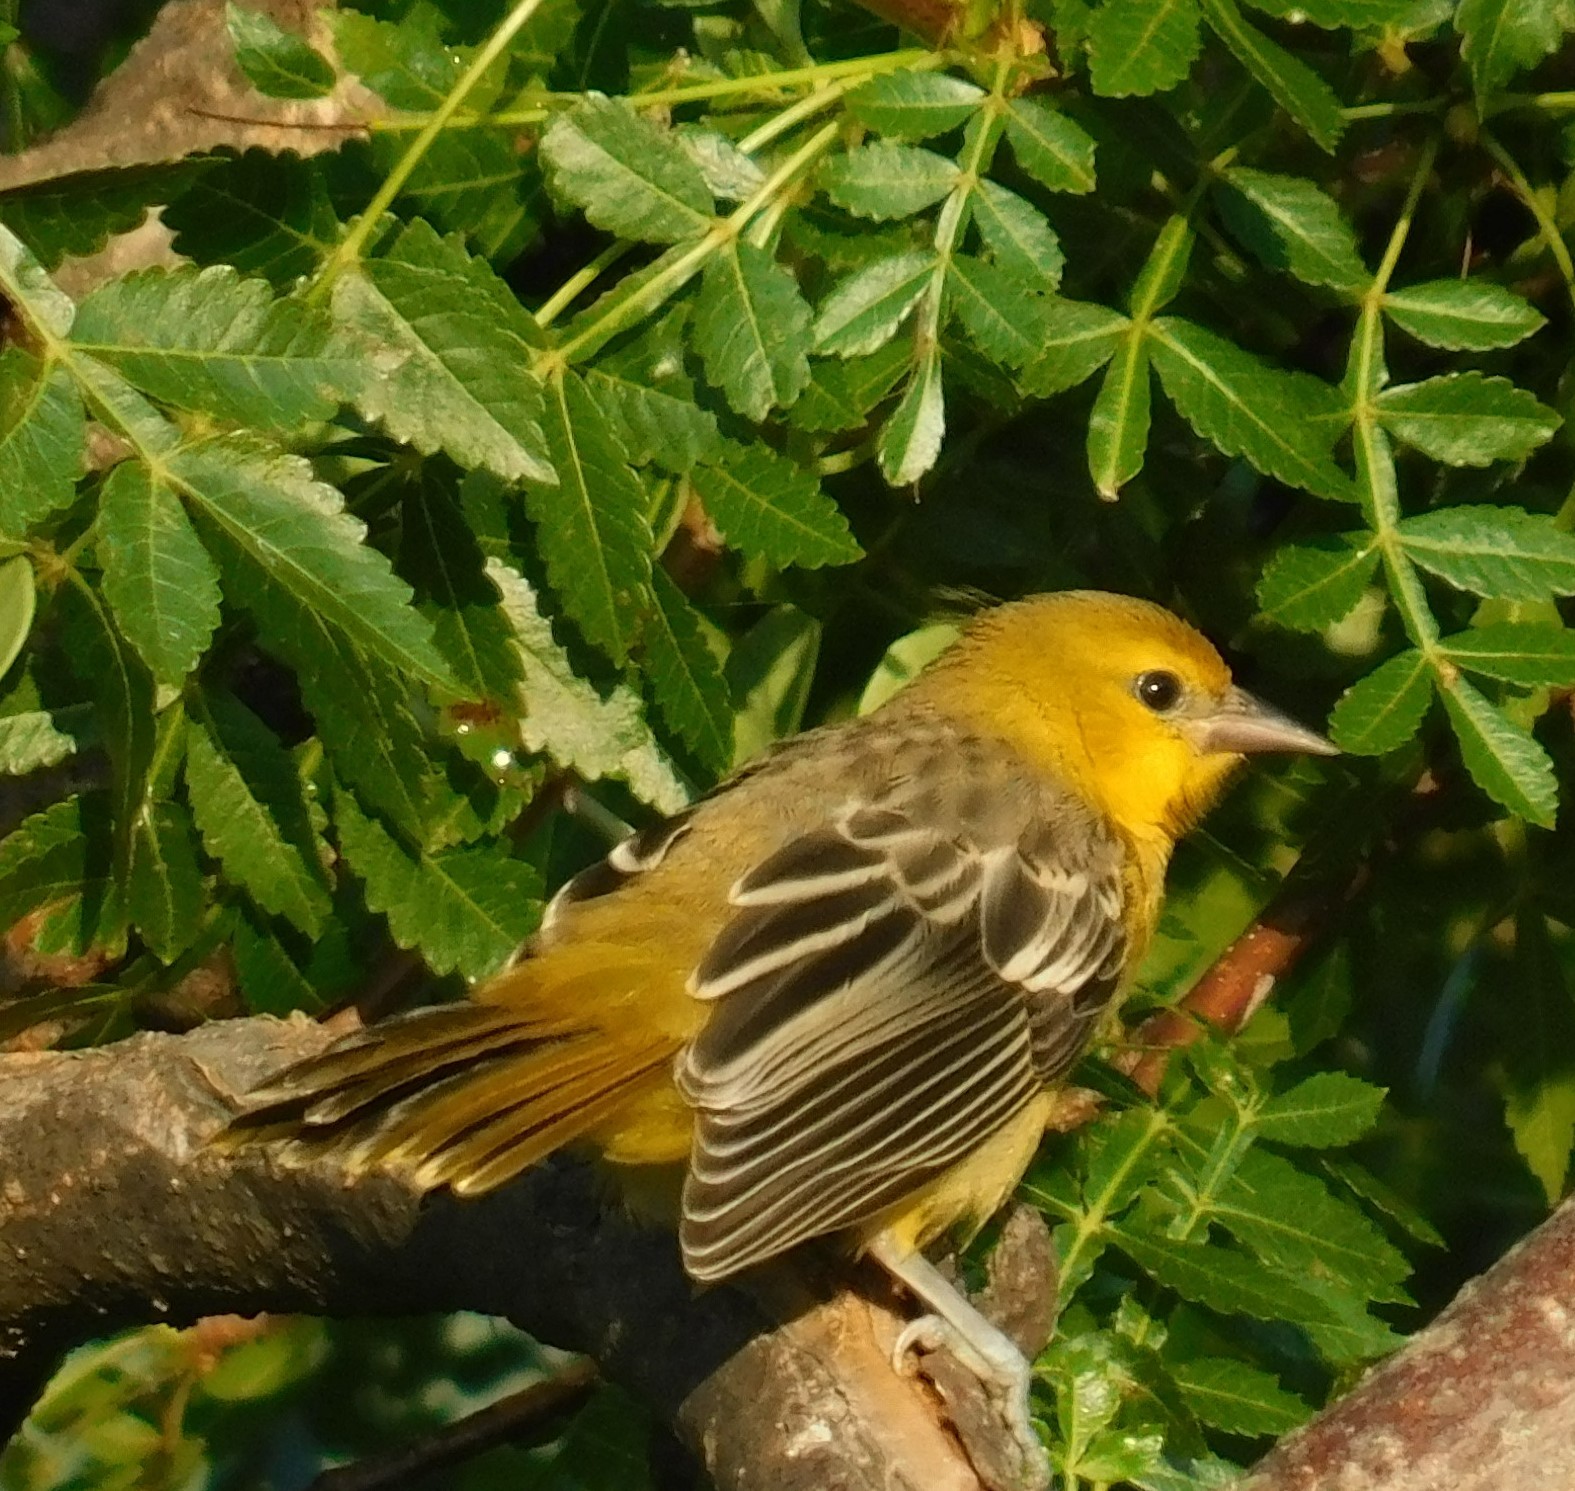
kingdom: Animalia
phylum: Chordata
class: Aves
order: Passeriformes
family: Icteridae
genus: Icterus
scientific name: Icterus pustulatus
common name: Streak-backed oriole
